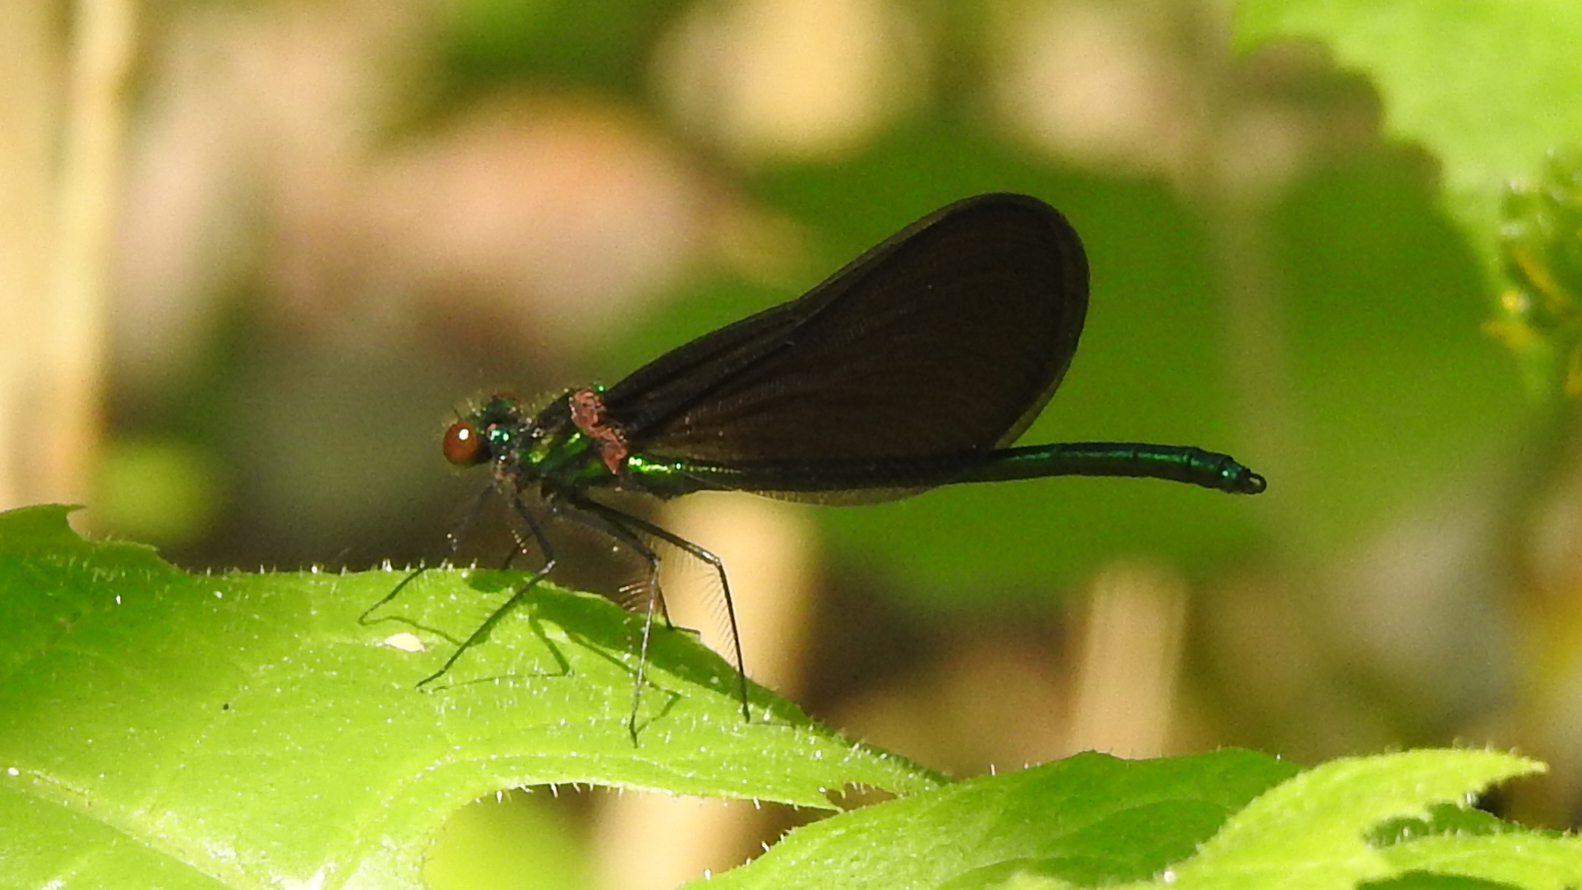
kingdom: Animalia
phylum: Arthropoda
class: Insecta
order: Odonata
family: Calopterygidae
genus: Calopteryx
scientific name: Calopteryx maculata
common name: Ebony jewelwing
